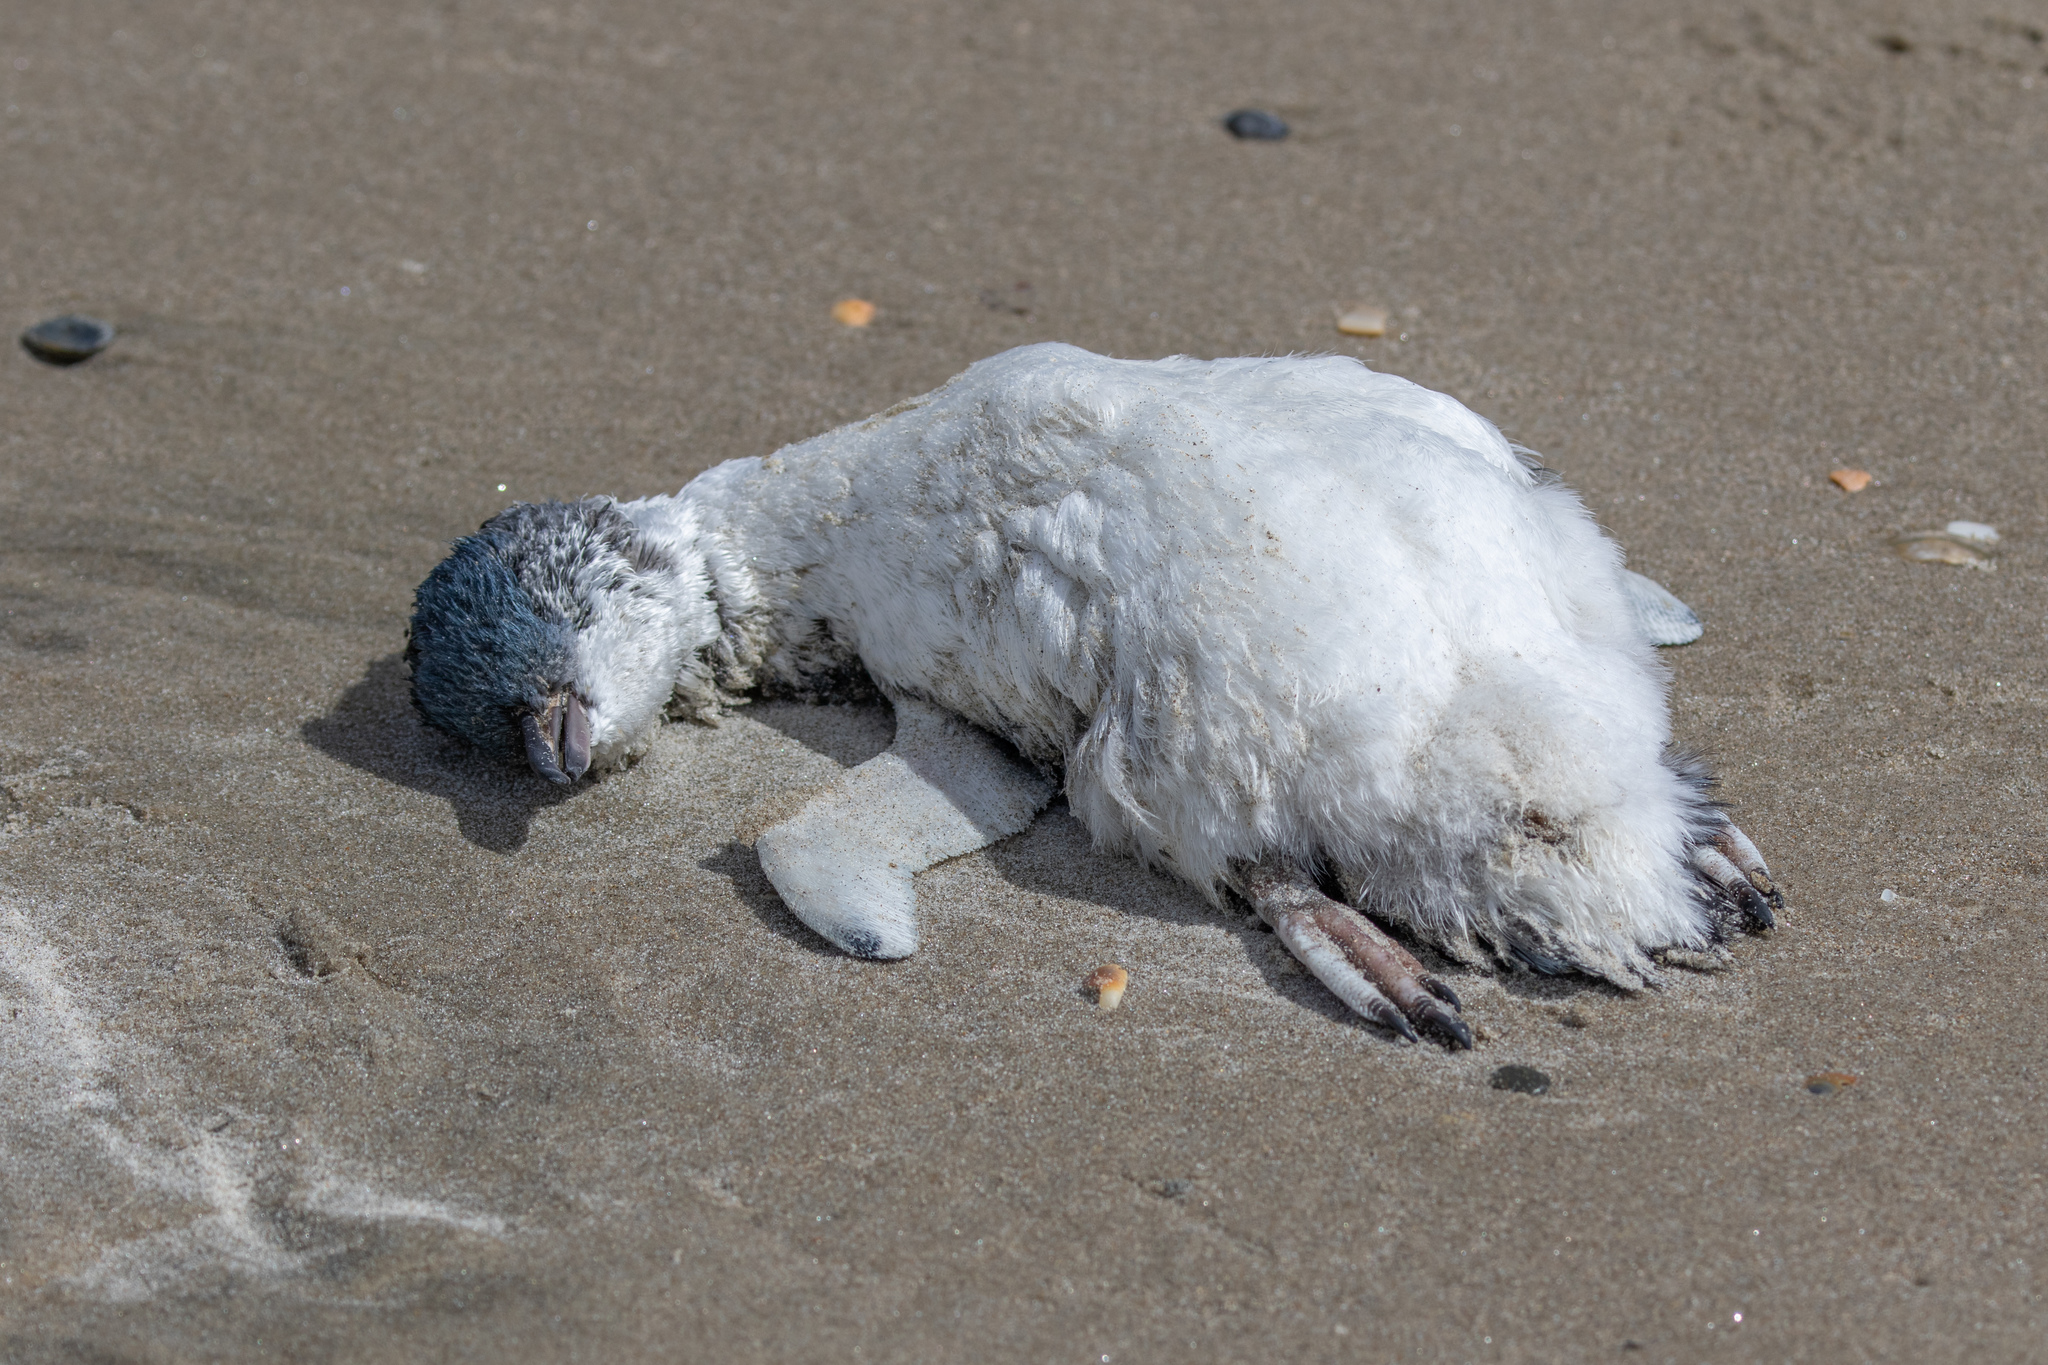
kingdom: Animalia
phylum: Chordata
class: Aves
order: Sphenisciformes
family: Spheniscidae
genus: Eudyptula
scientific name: Eudyptula minor
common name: Little penguin
